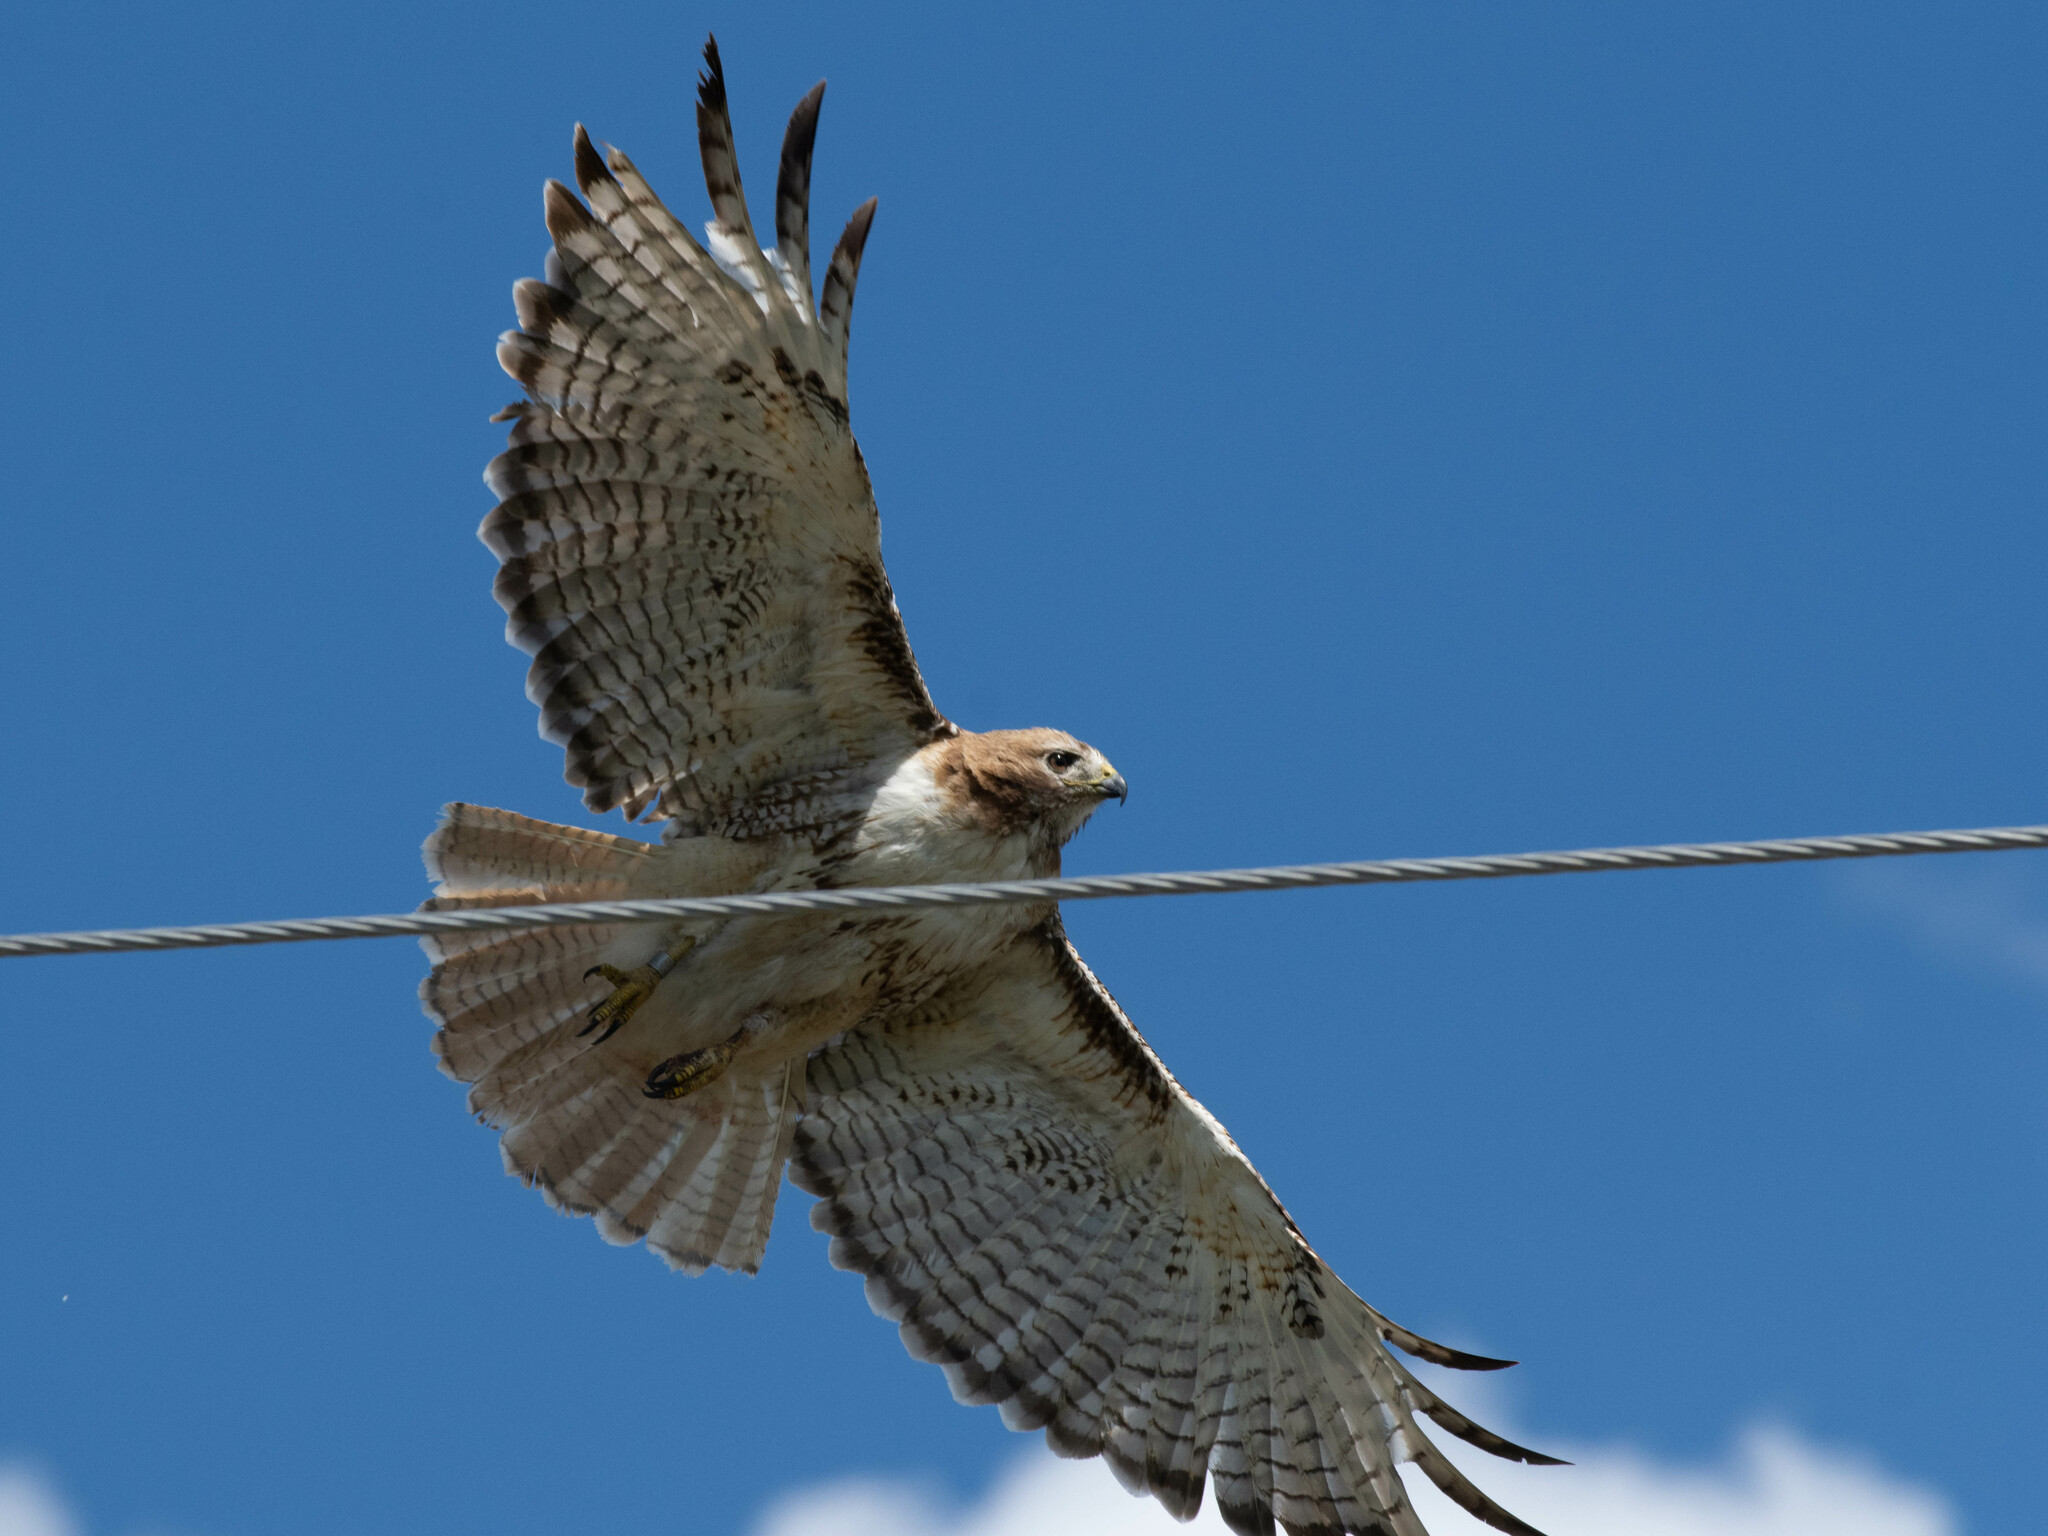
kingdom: Animalia
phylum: Chordata
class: Aves
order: Accipitriformes
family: Accipitridae
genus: Buteo
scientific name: Buteo jamaicensis
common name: Red-tailed hawk
